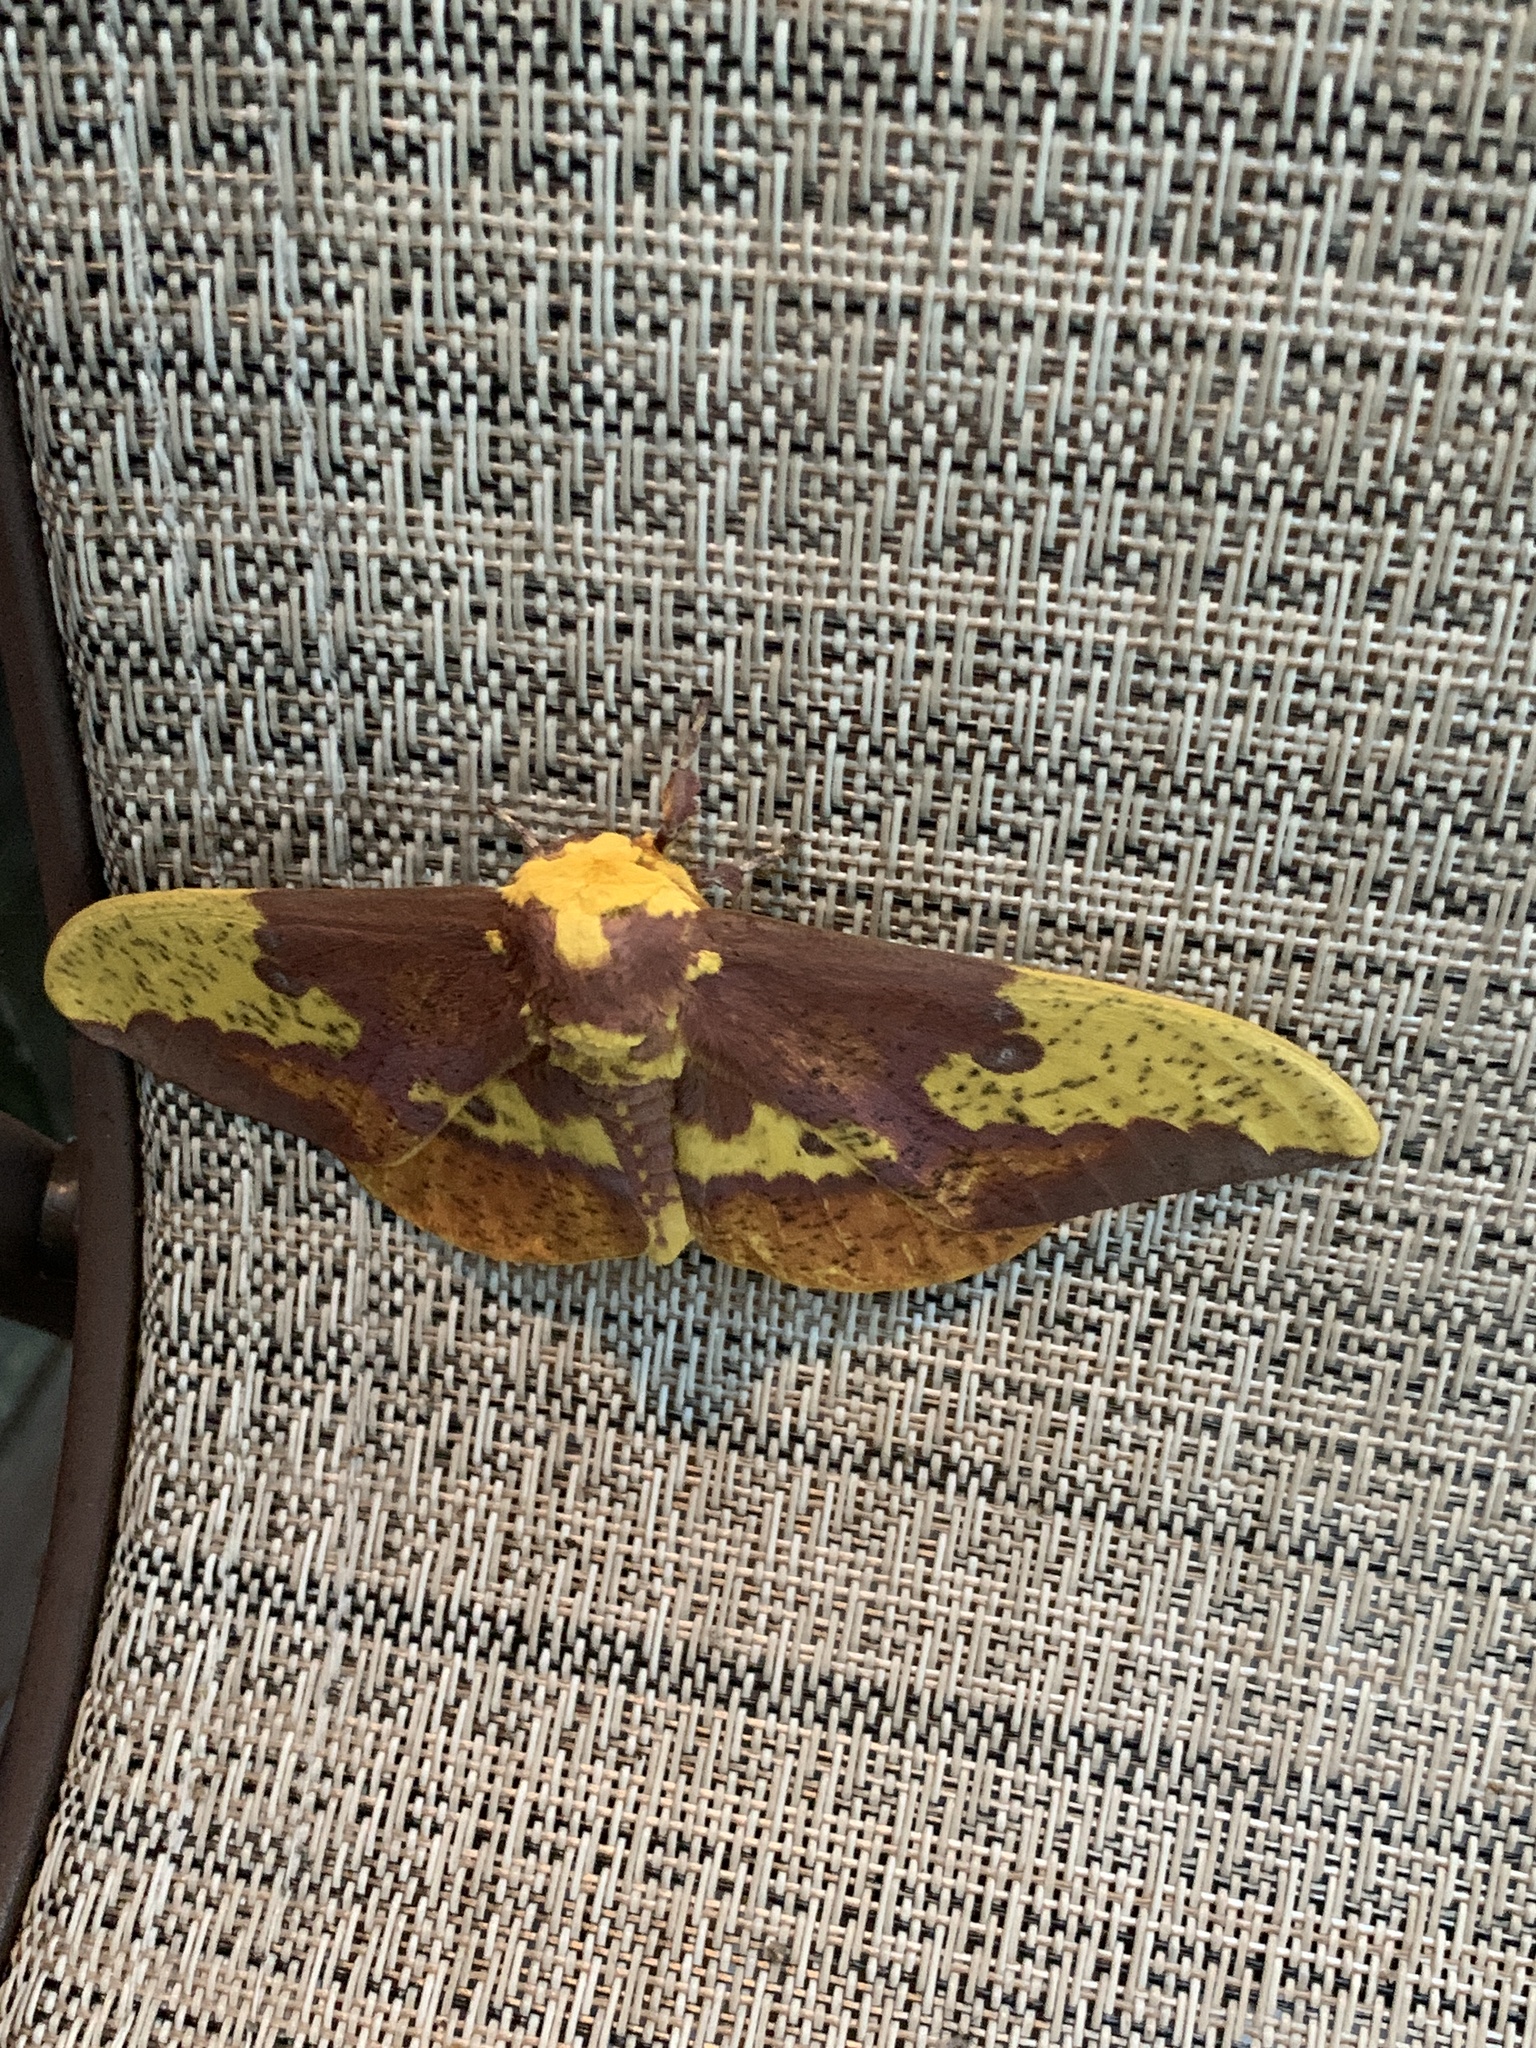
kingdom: Animalia
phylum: Arthropoda
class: Insecta
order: Lepidoptera
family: Saturniidae
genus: Eacles
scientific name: Eacles imperialis
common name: Imperial moth
